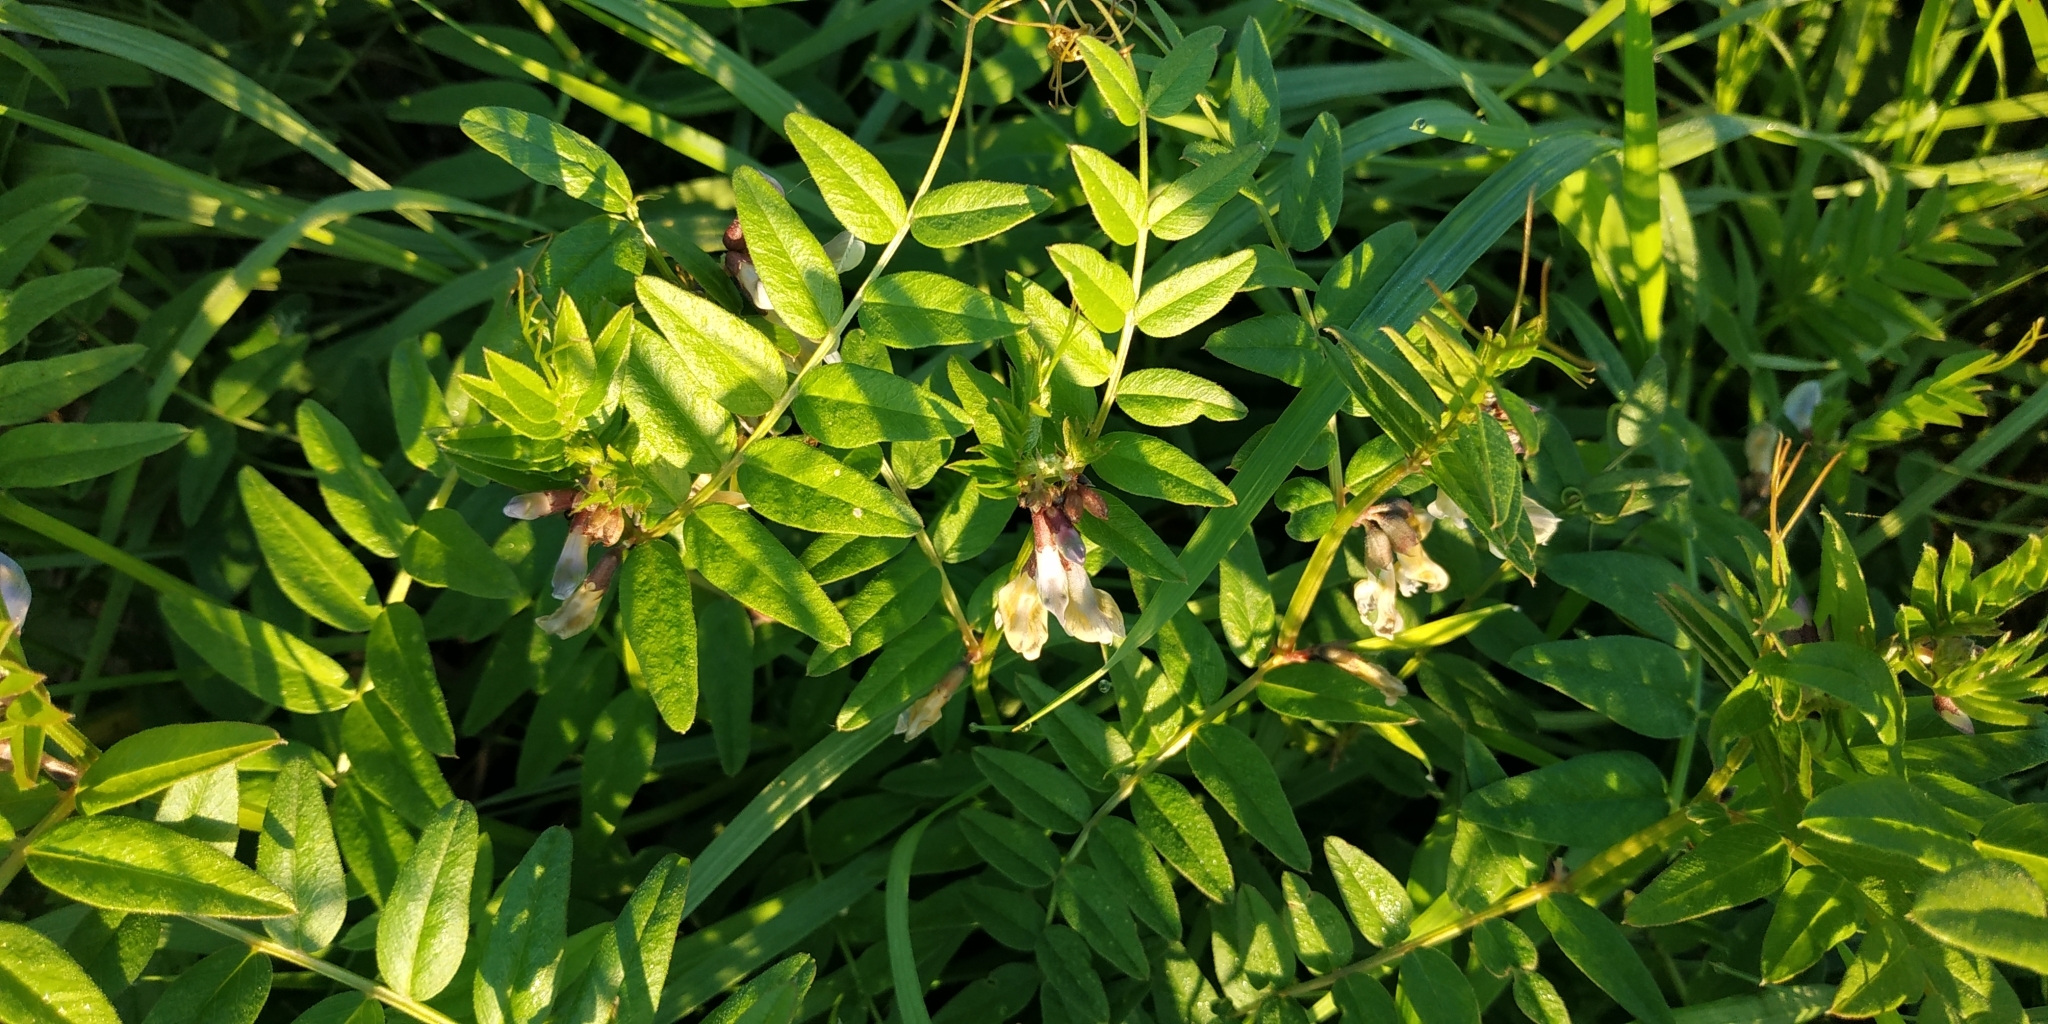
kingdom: Plantae
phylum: Tracheophyta
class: Magnoliopsida
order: Fabales
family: Fabaceae
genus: Vicia
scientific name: Vicia sepium
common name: Bush vetch
